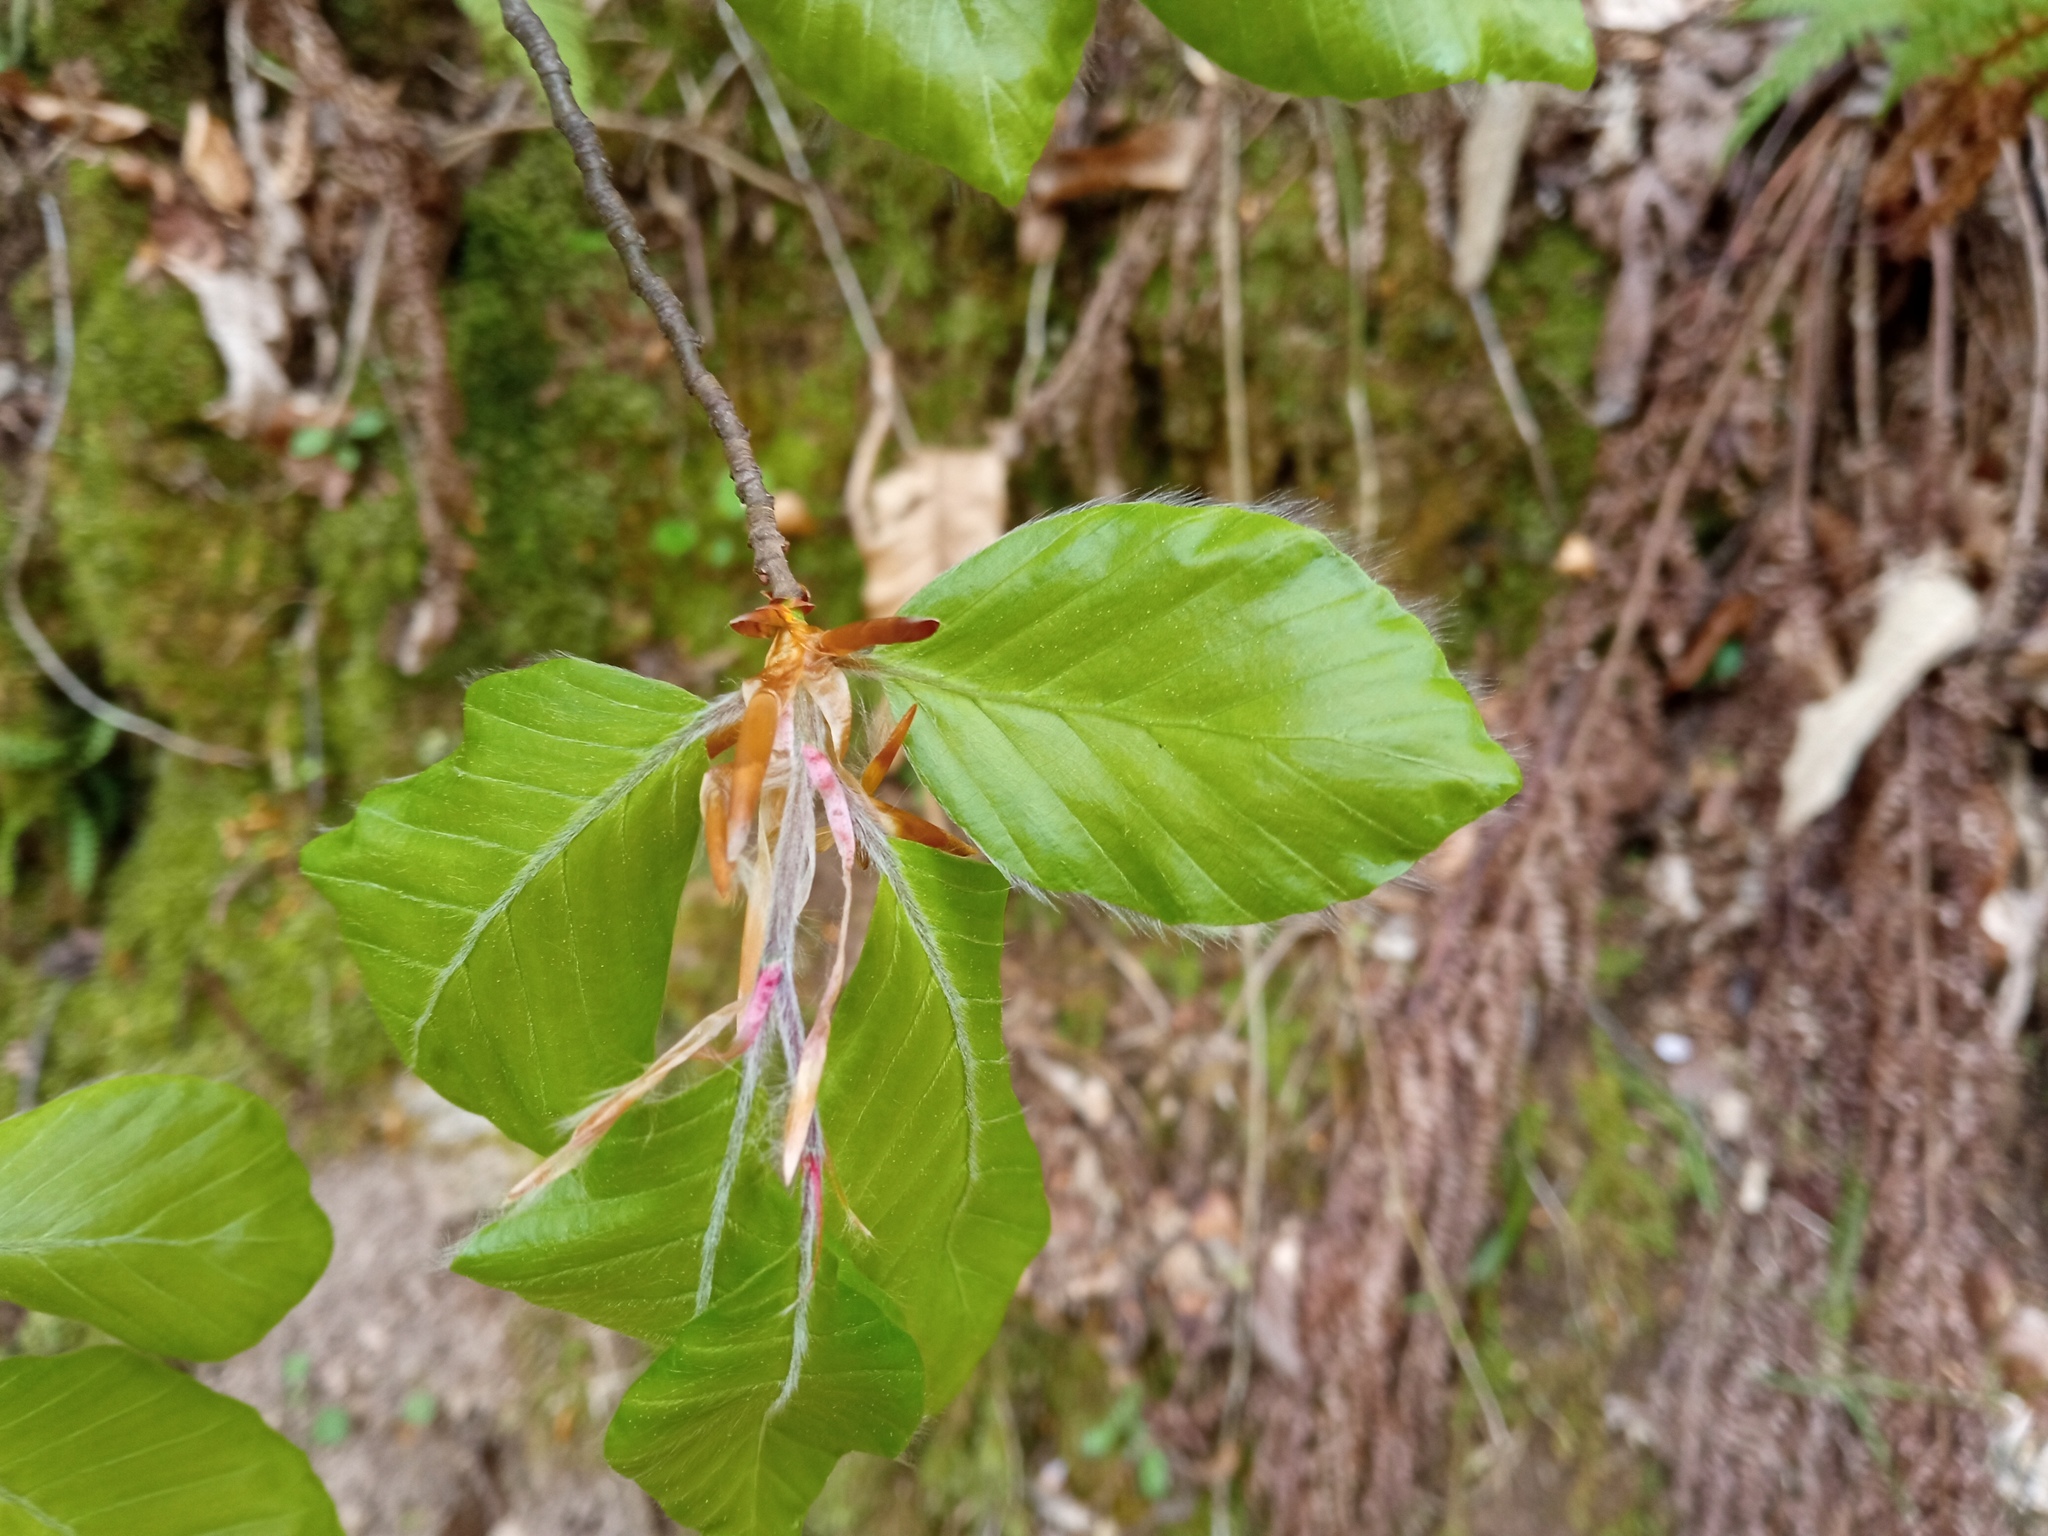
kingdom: Plantae
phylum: Tracheophyta
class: Magnoliopsida
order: Fagales
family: Fagaceae
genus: Fagus
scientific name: Fagus sylvatica
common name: Beech
